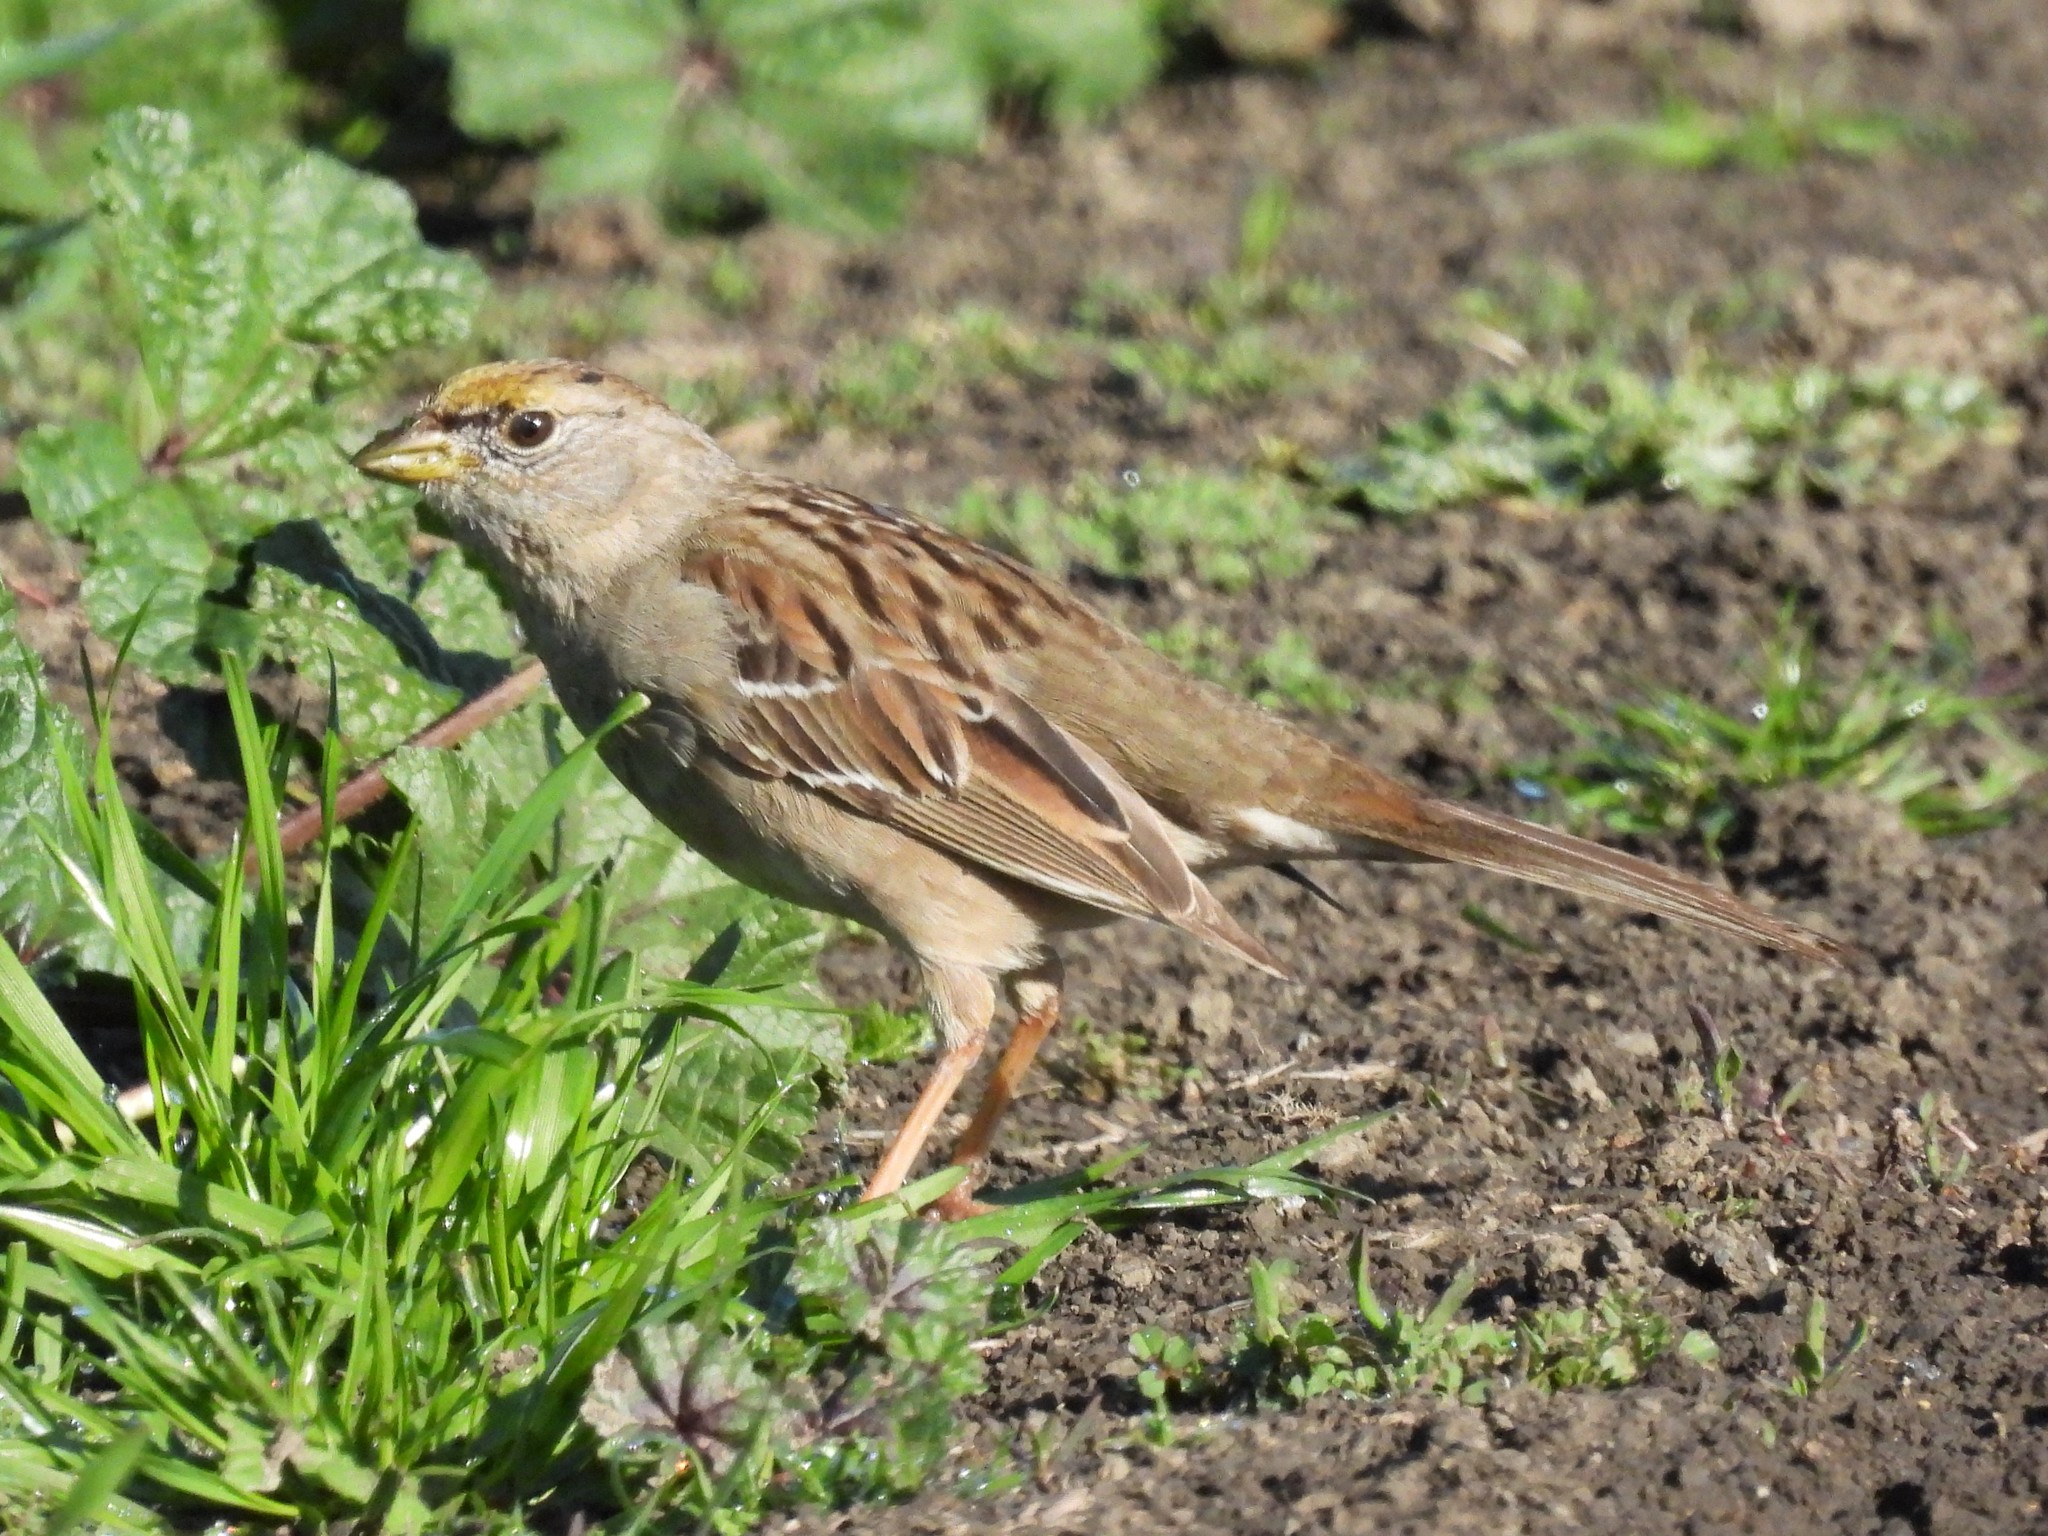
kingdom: Animalia
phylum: Chordata
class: Aves
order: Passeriformes
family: Passerellidae
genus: Zonotrichia
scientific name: Zonotrichia atricapilla
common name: Golden-crowned sparrow
